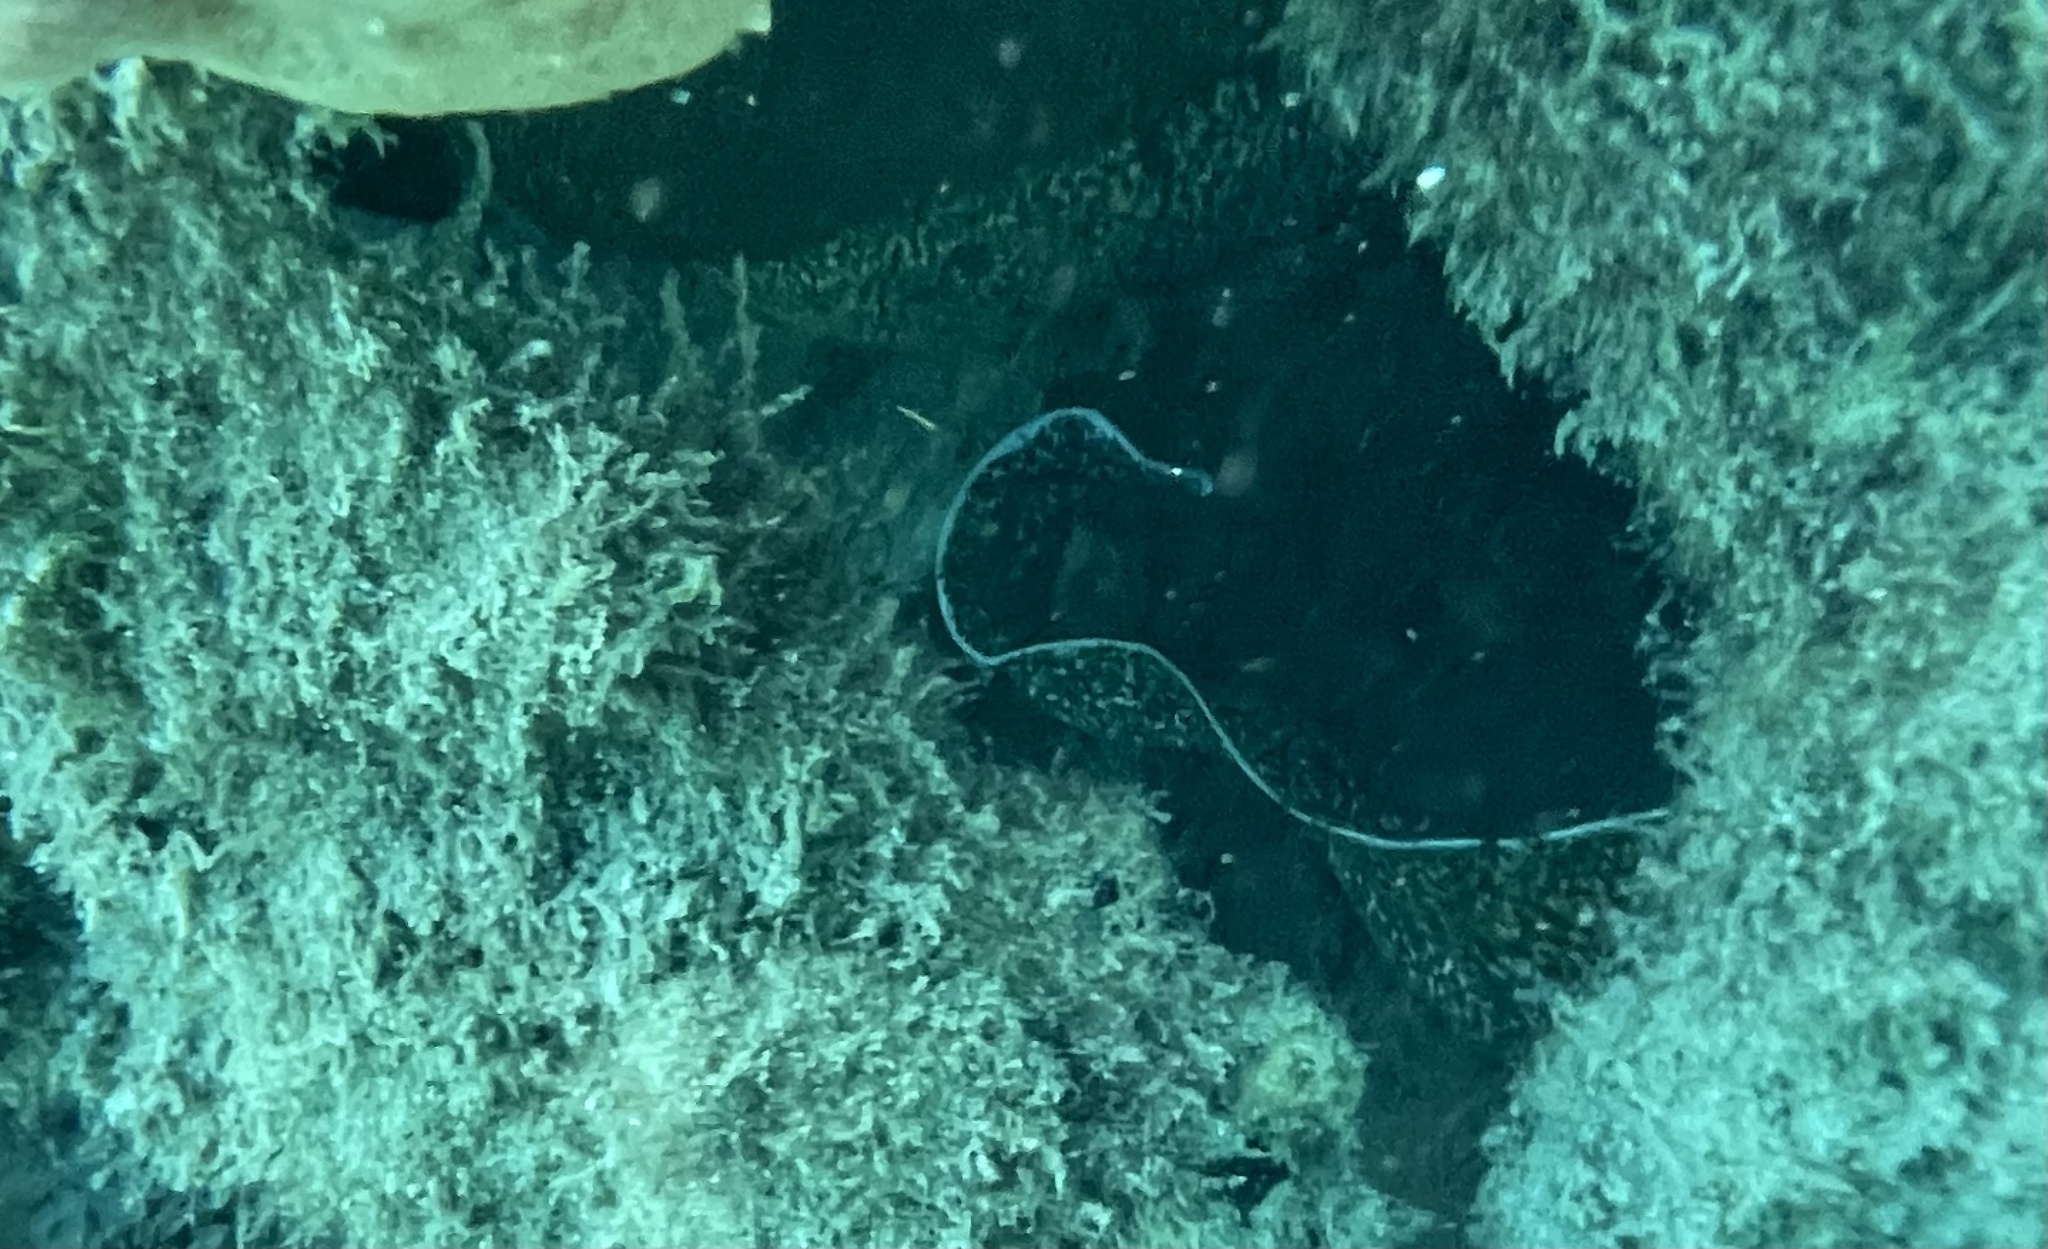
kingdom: Animalia
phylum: Chordata
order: Anguilliformes
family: Muraenidae
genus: Gymnothorax
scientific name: Gymnothorax moringa
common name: Spotted moray
